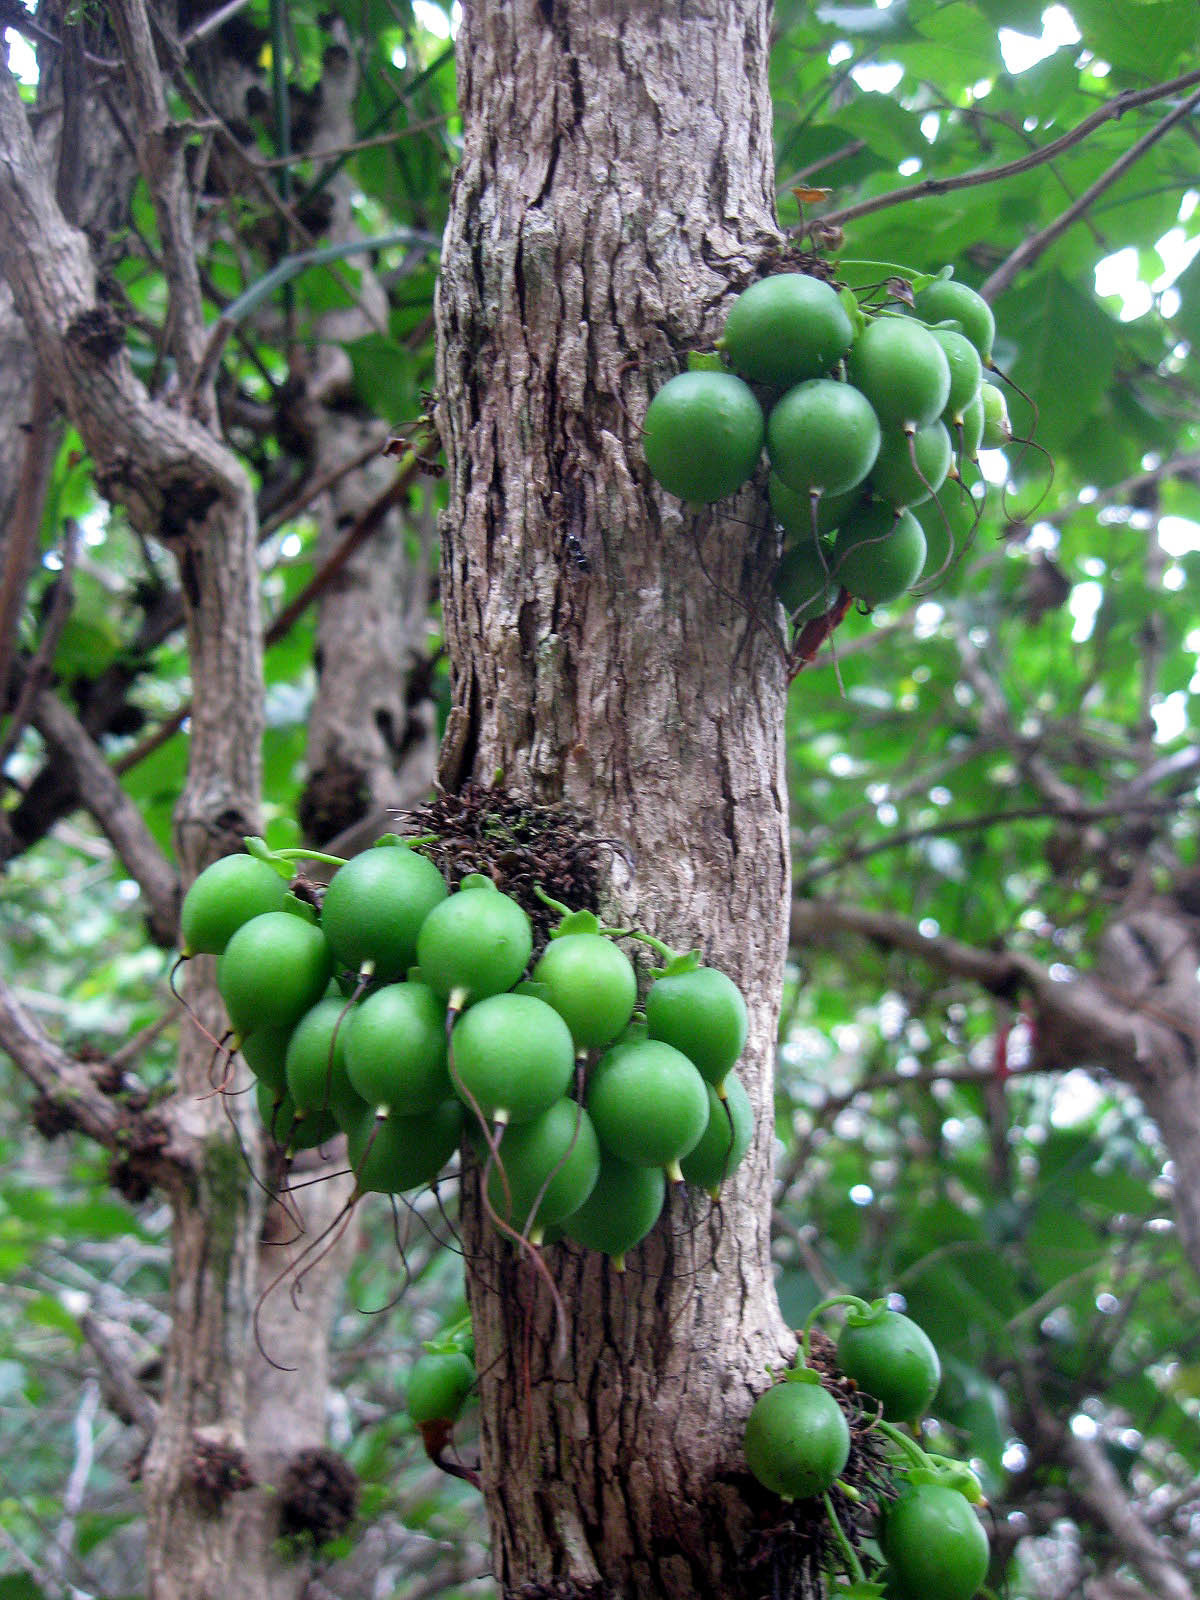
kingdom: Plantae
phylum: Tracheophyta
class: Magnoliopsida
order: Lamiales
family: Stilbaceae
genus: Halleria
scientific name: Halleria lucida
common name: Tree fuschia
